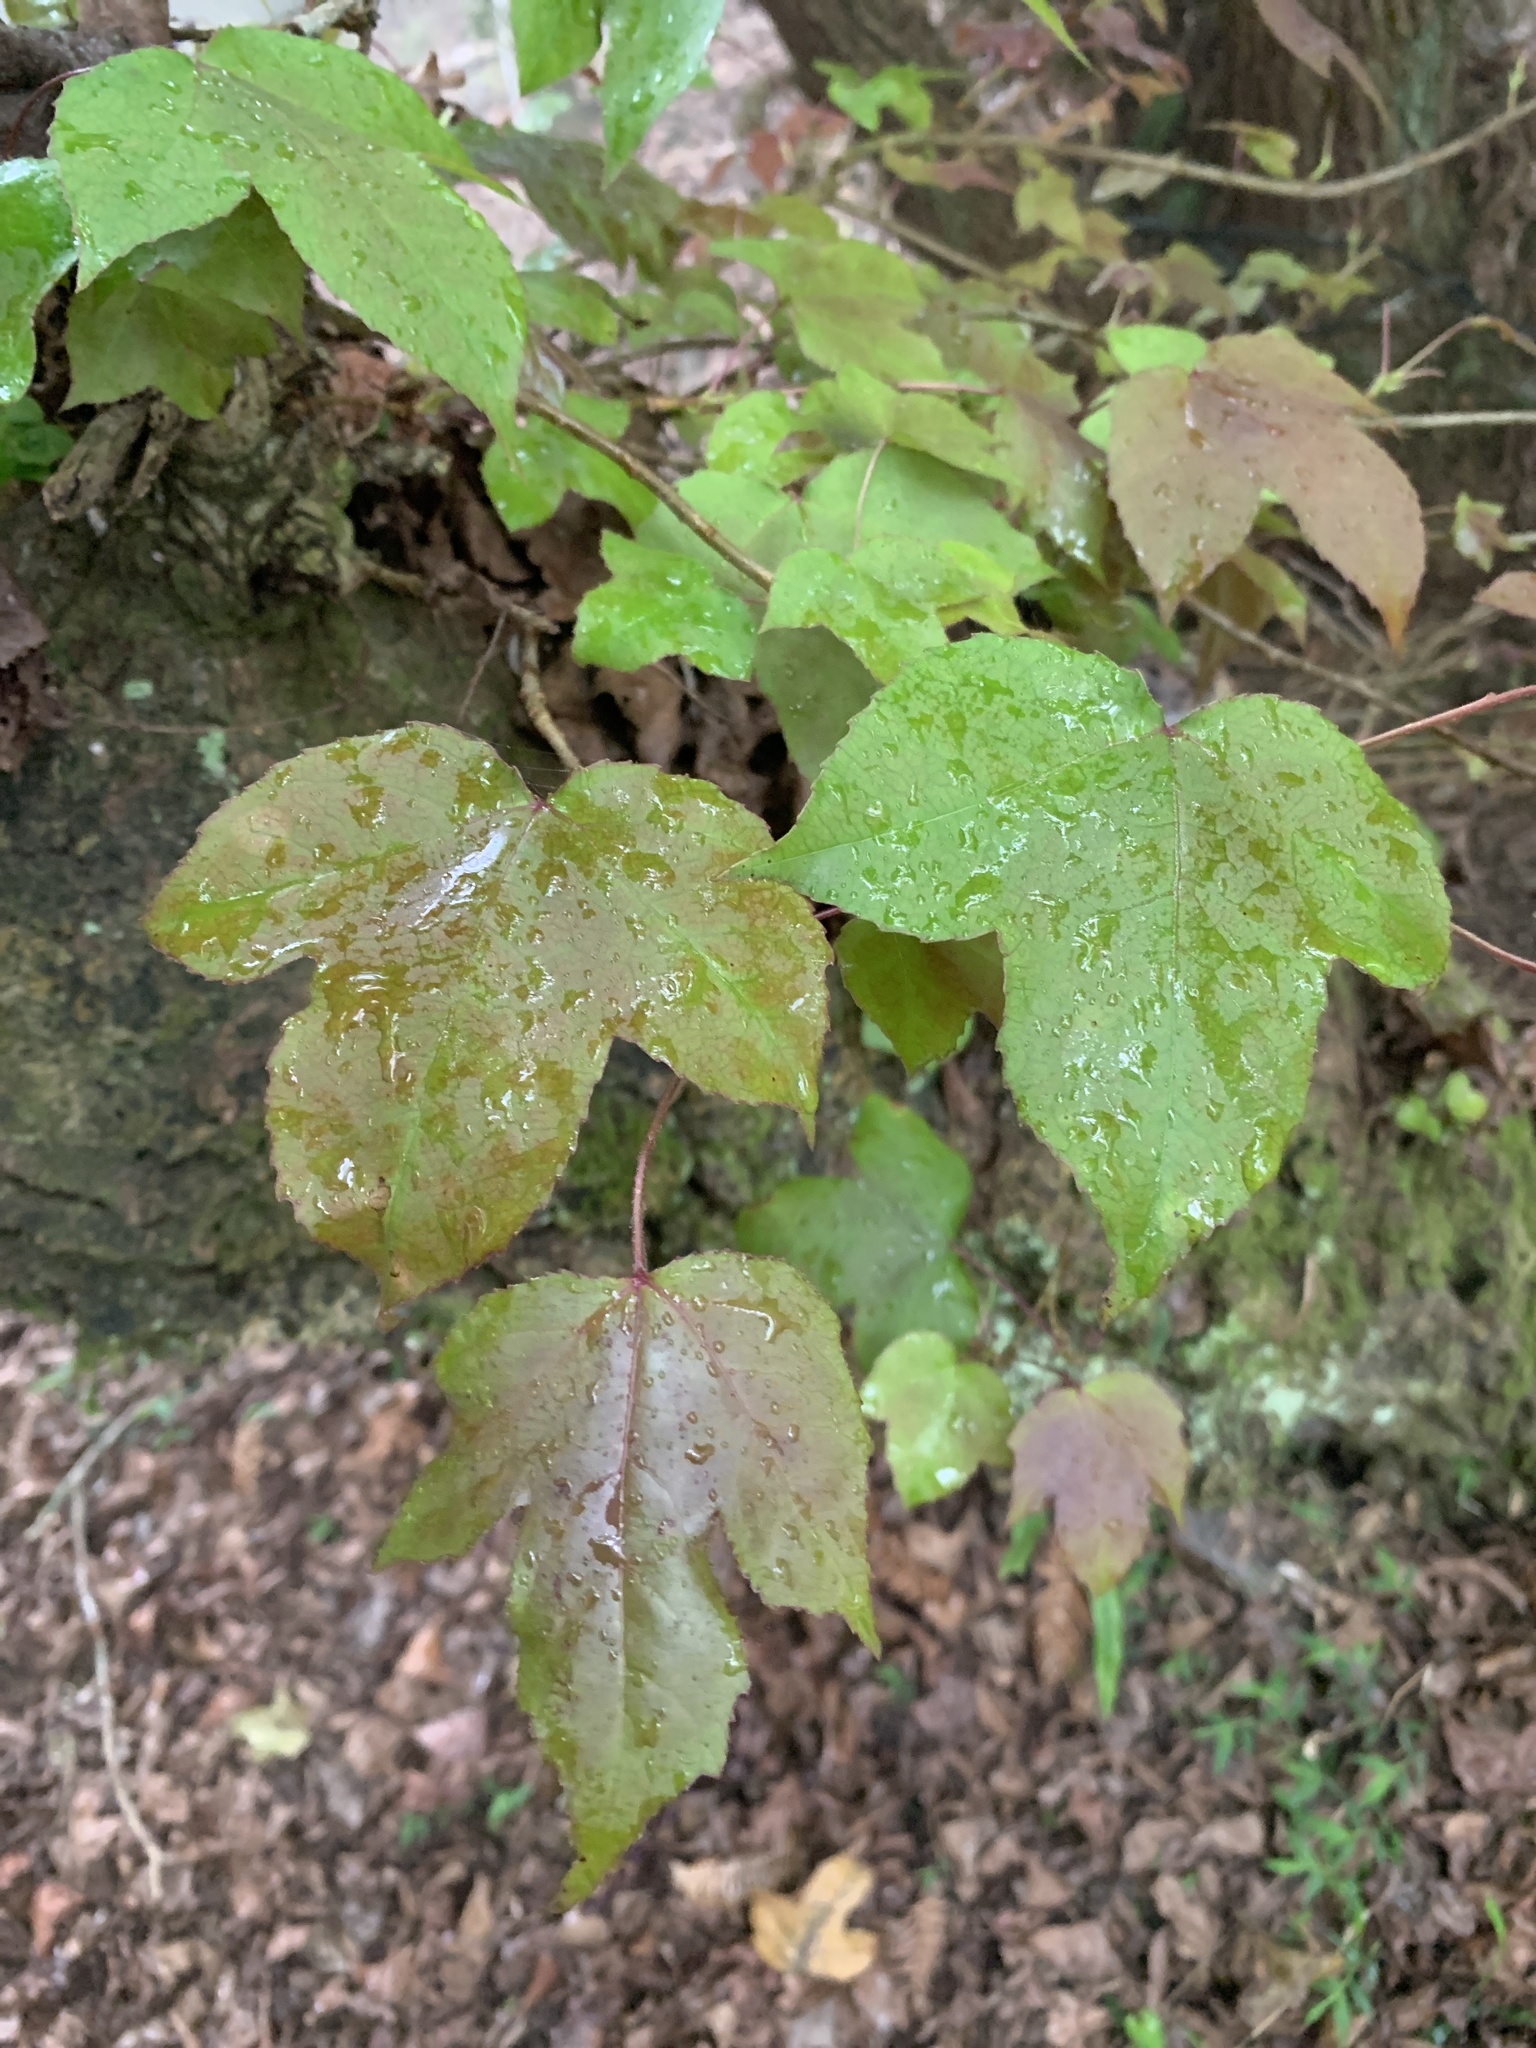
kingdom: Plantae
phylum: Tracheophyta
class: Magnoliopsida
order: Saxifragales
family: Altingiaceae
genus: Liquidambar
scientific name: Liquidambar formosana
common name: Chinese sweet gum
